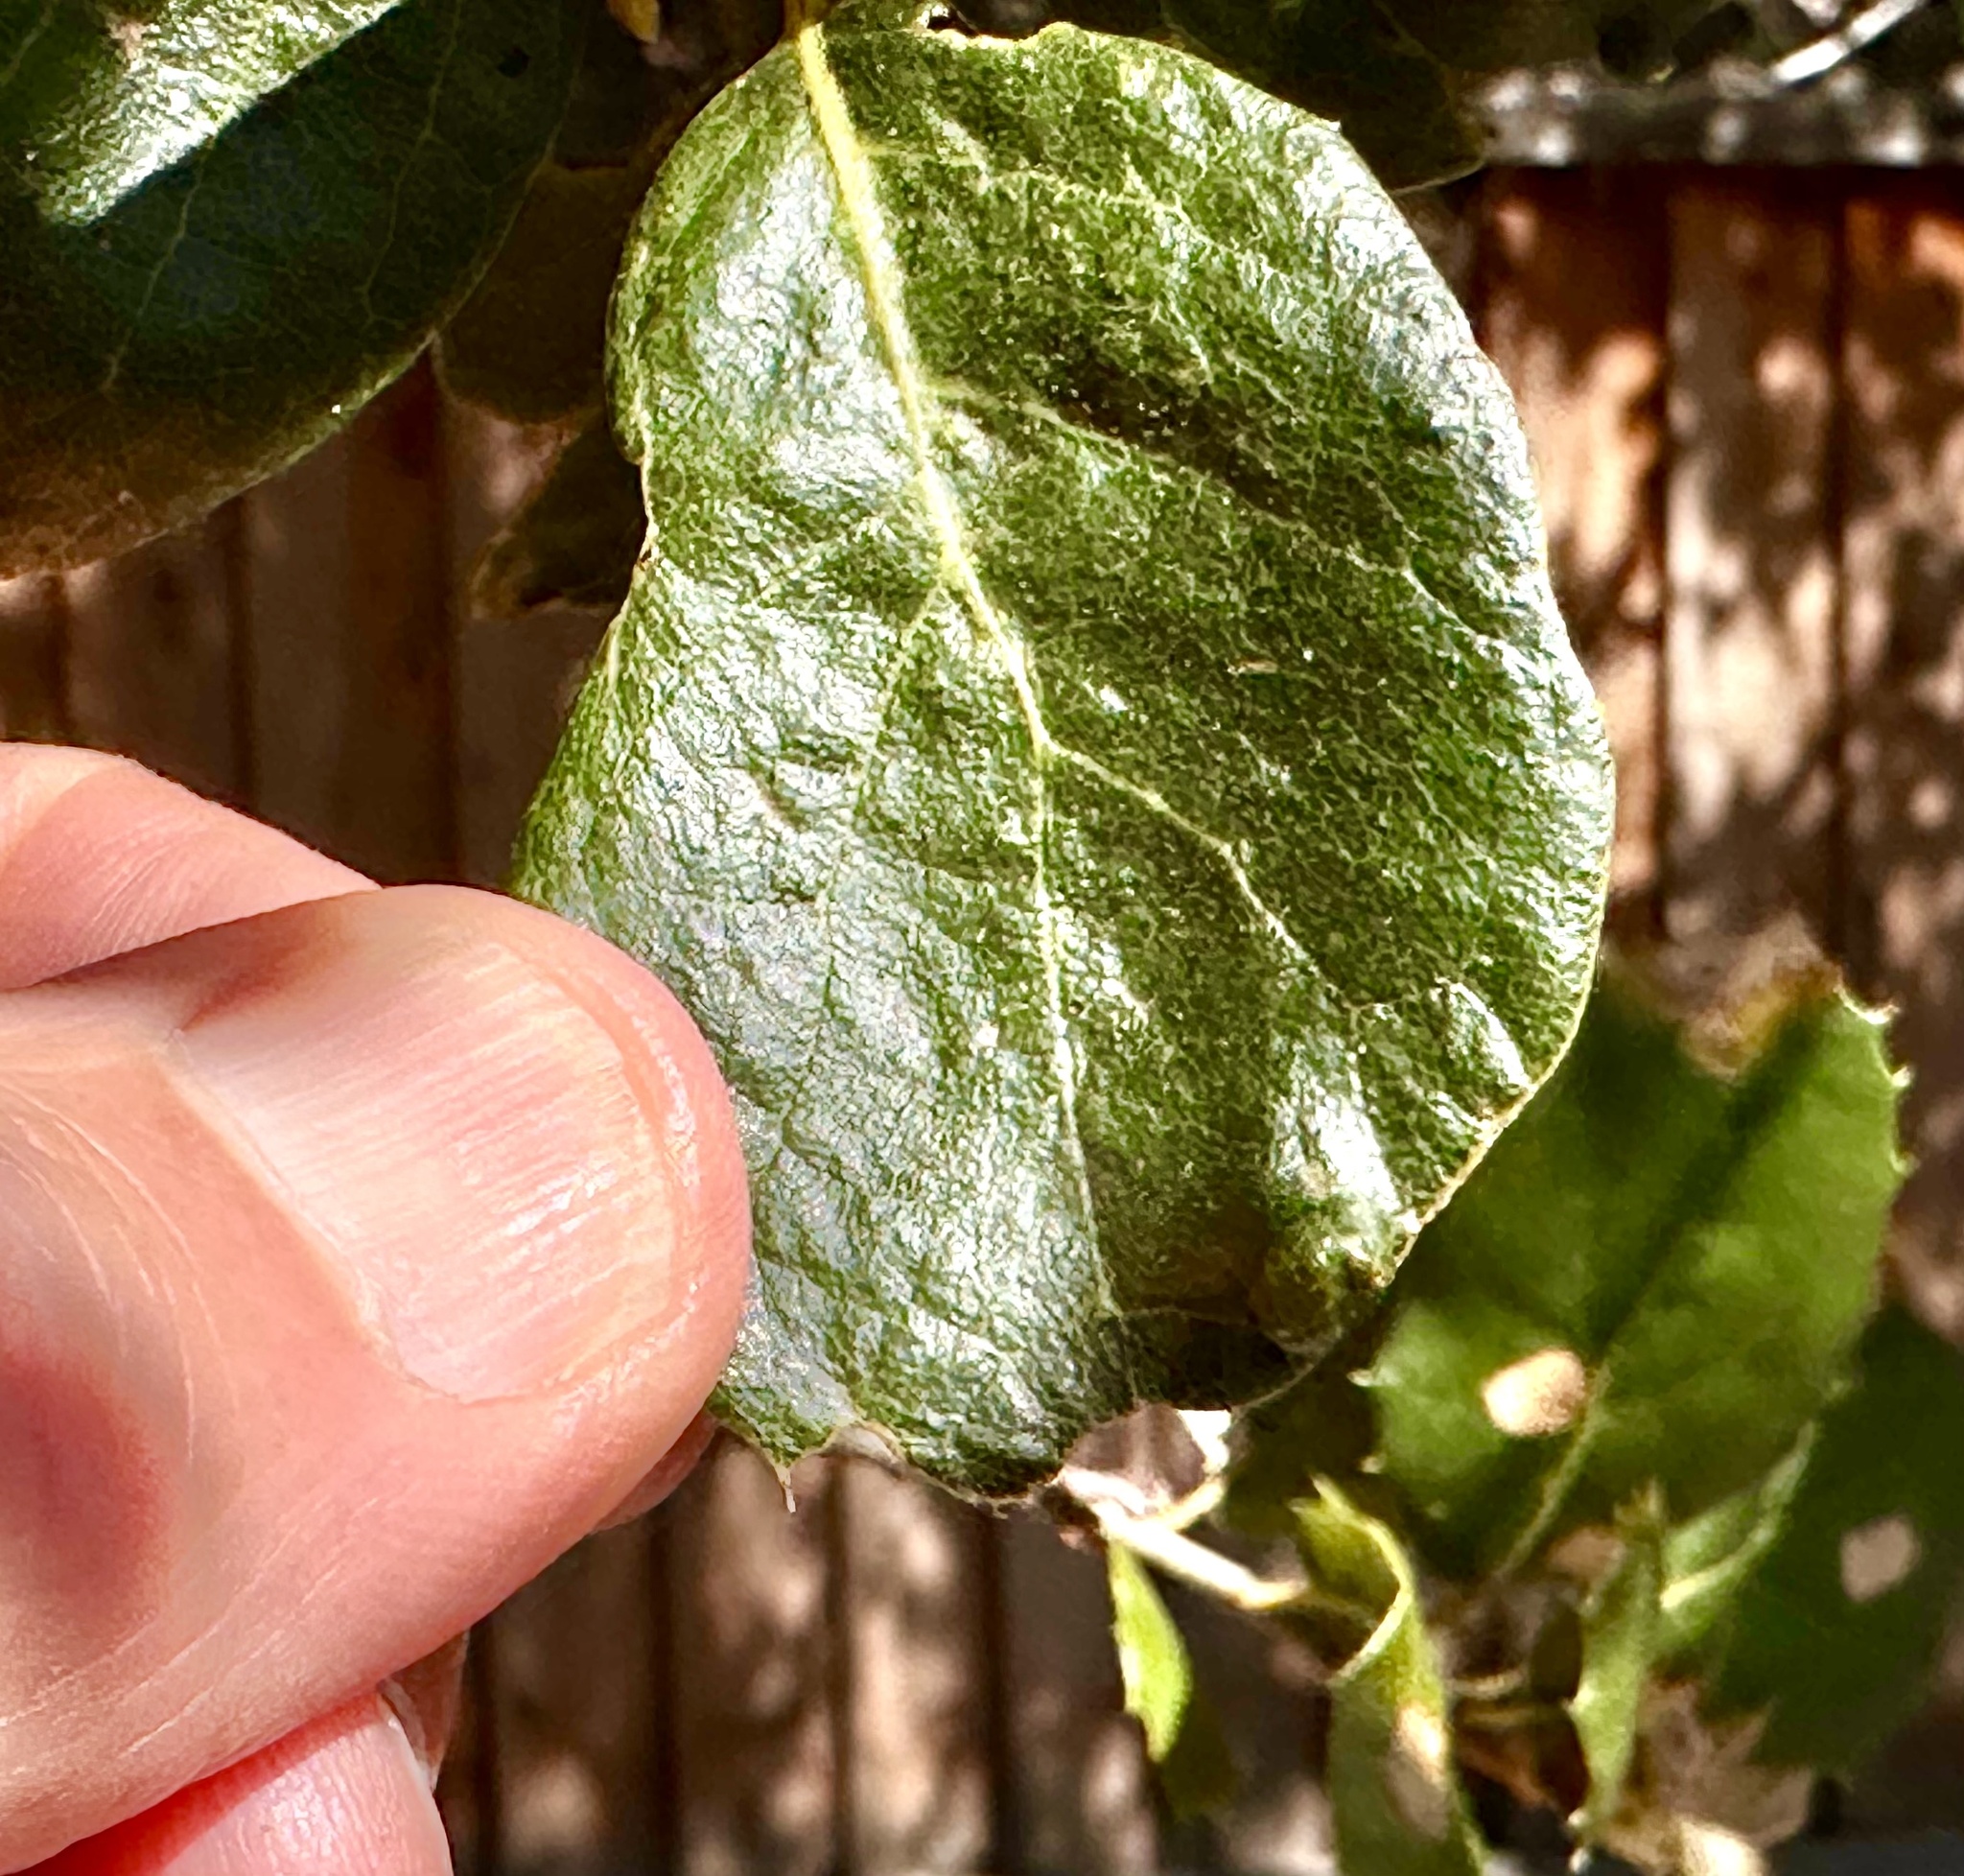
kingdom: Animalia
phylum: Arthropoda
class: Arachnida
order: Trombidiformes
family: Eriophyidae
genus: Aceria
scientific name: Aceria
